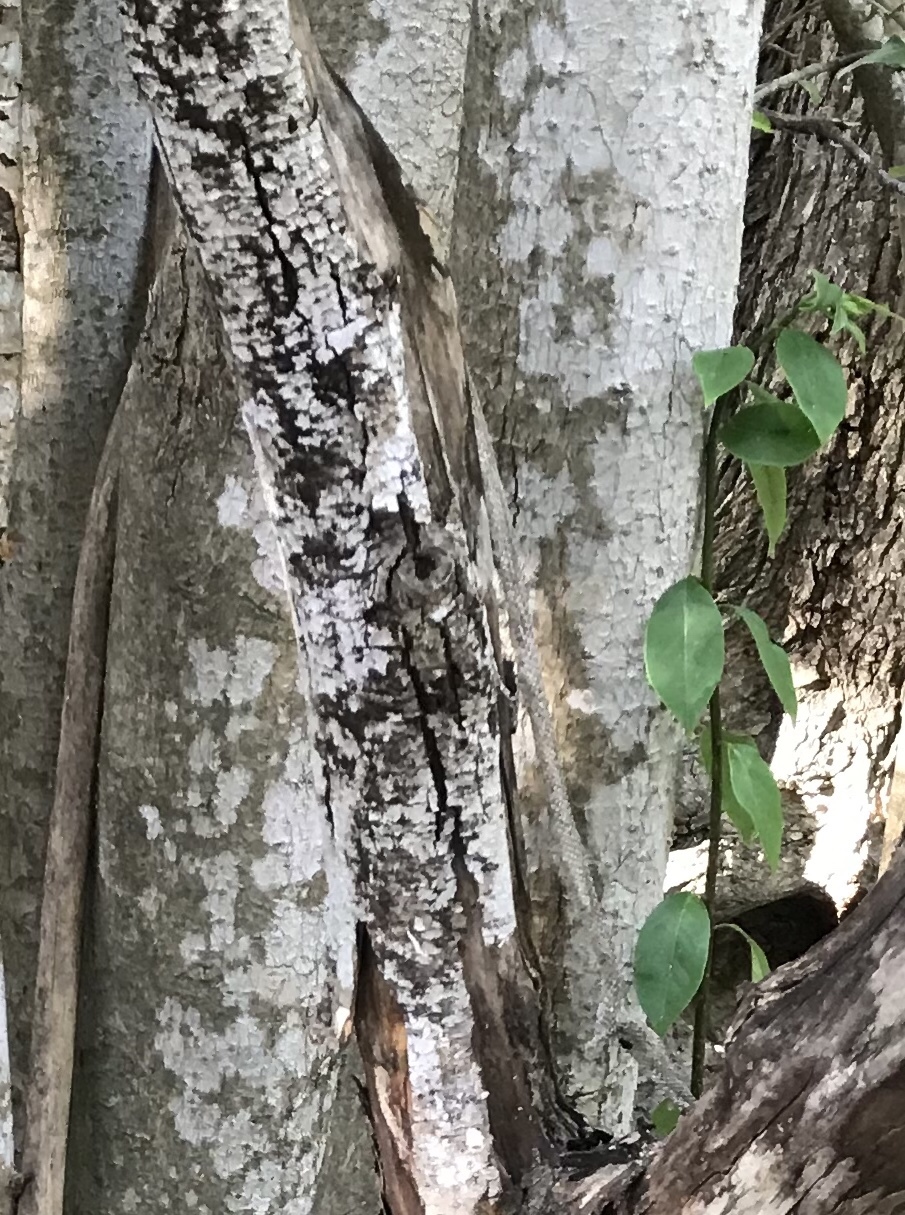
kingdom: Plantae
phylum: Tracheophyta
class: Magnoliopsida
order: Lamiales
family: Oleaceae
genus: Ligustrum
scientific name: Ligustrum lucidum
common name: Glossy privet
